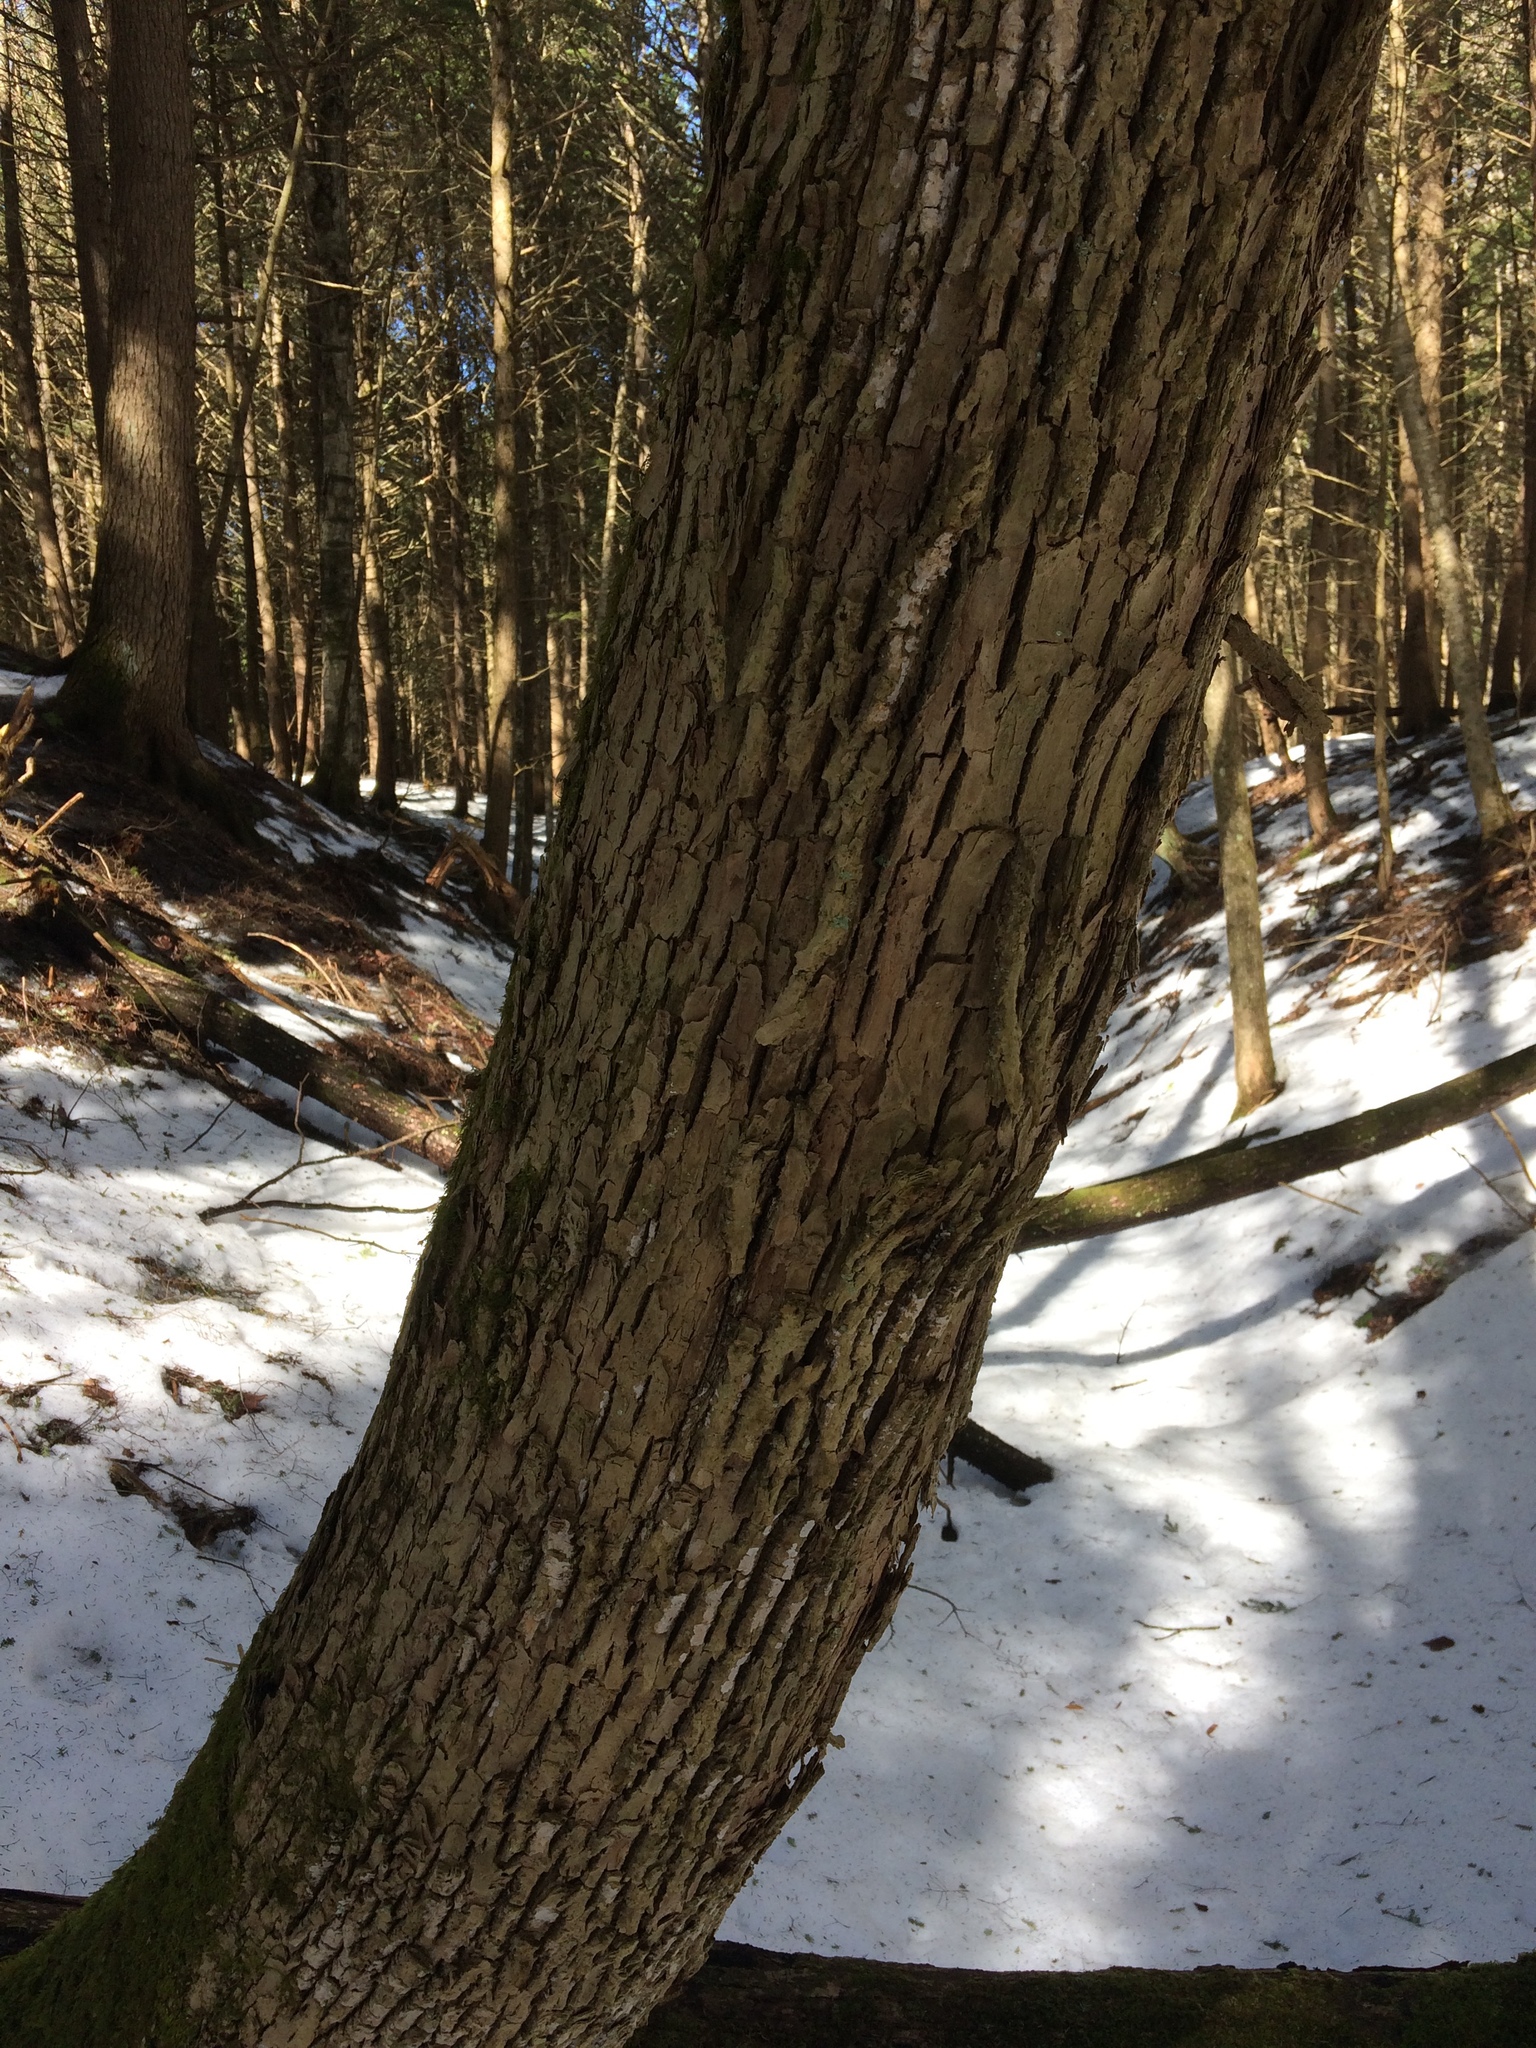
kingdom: Plantae
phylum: Tracheophyta
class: Magnoliopsida
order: Lamiales
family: Oleaceae
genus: Fraxinus
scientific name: Fraxinus americana
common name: White ash
